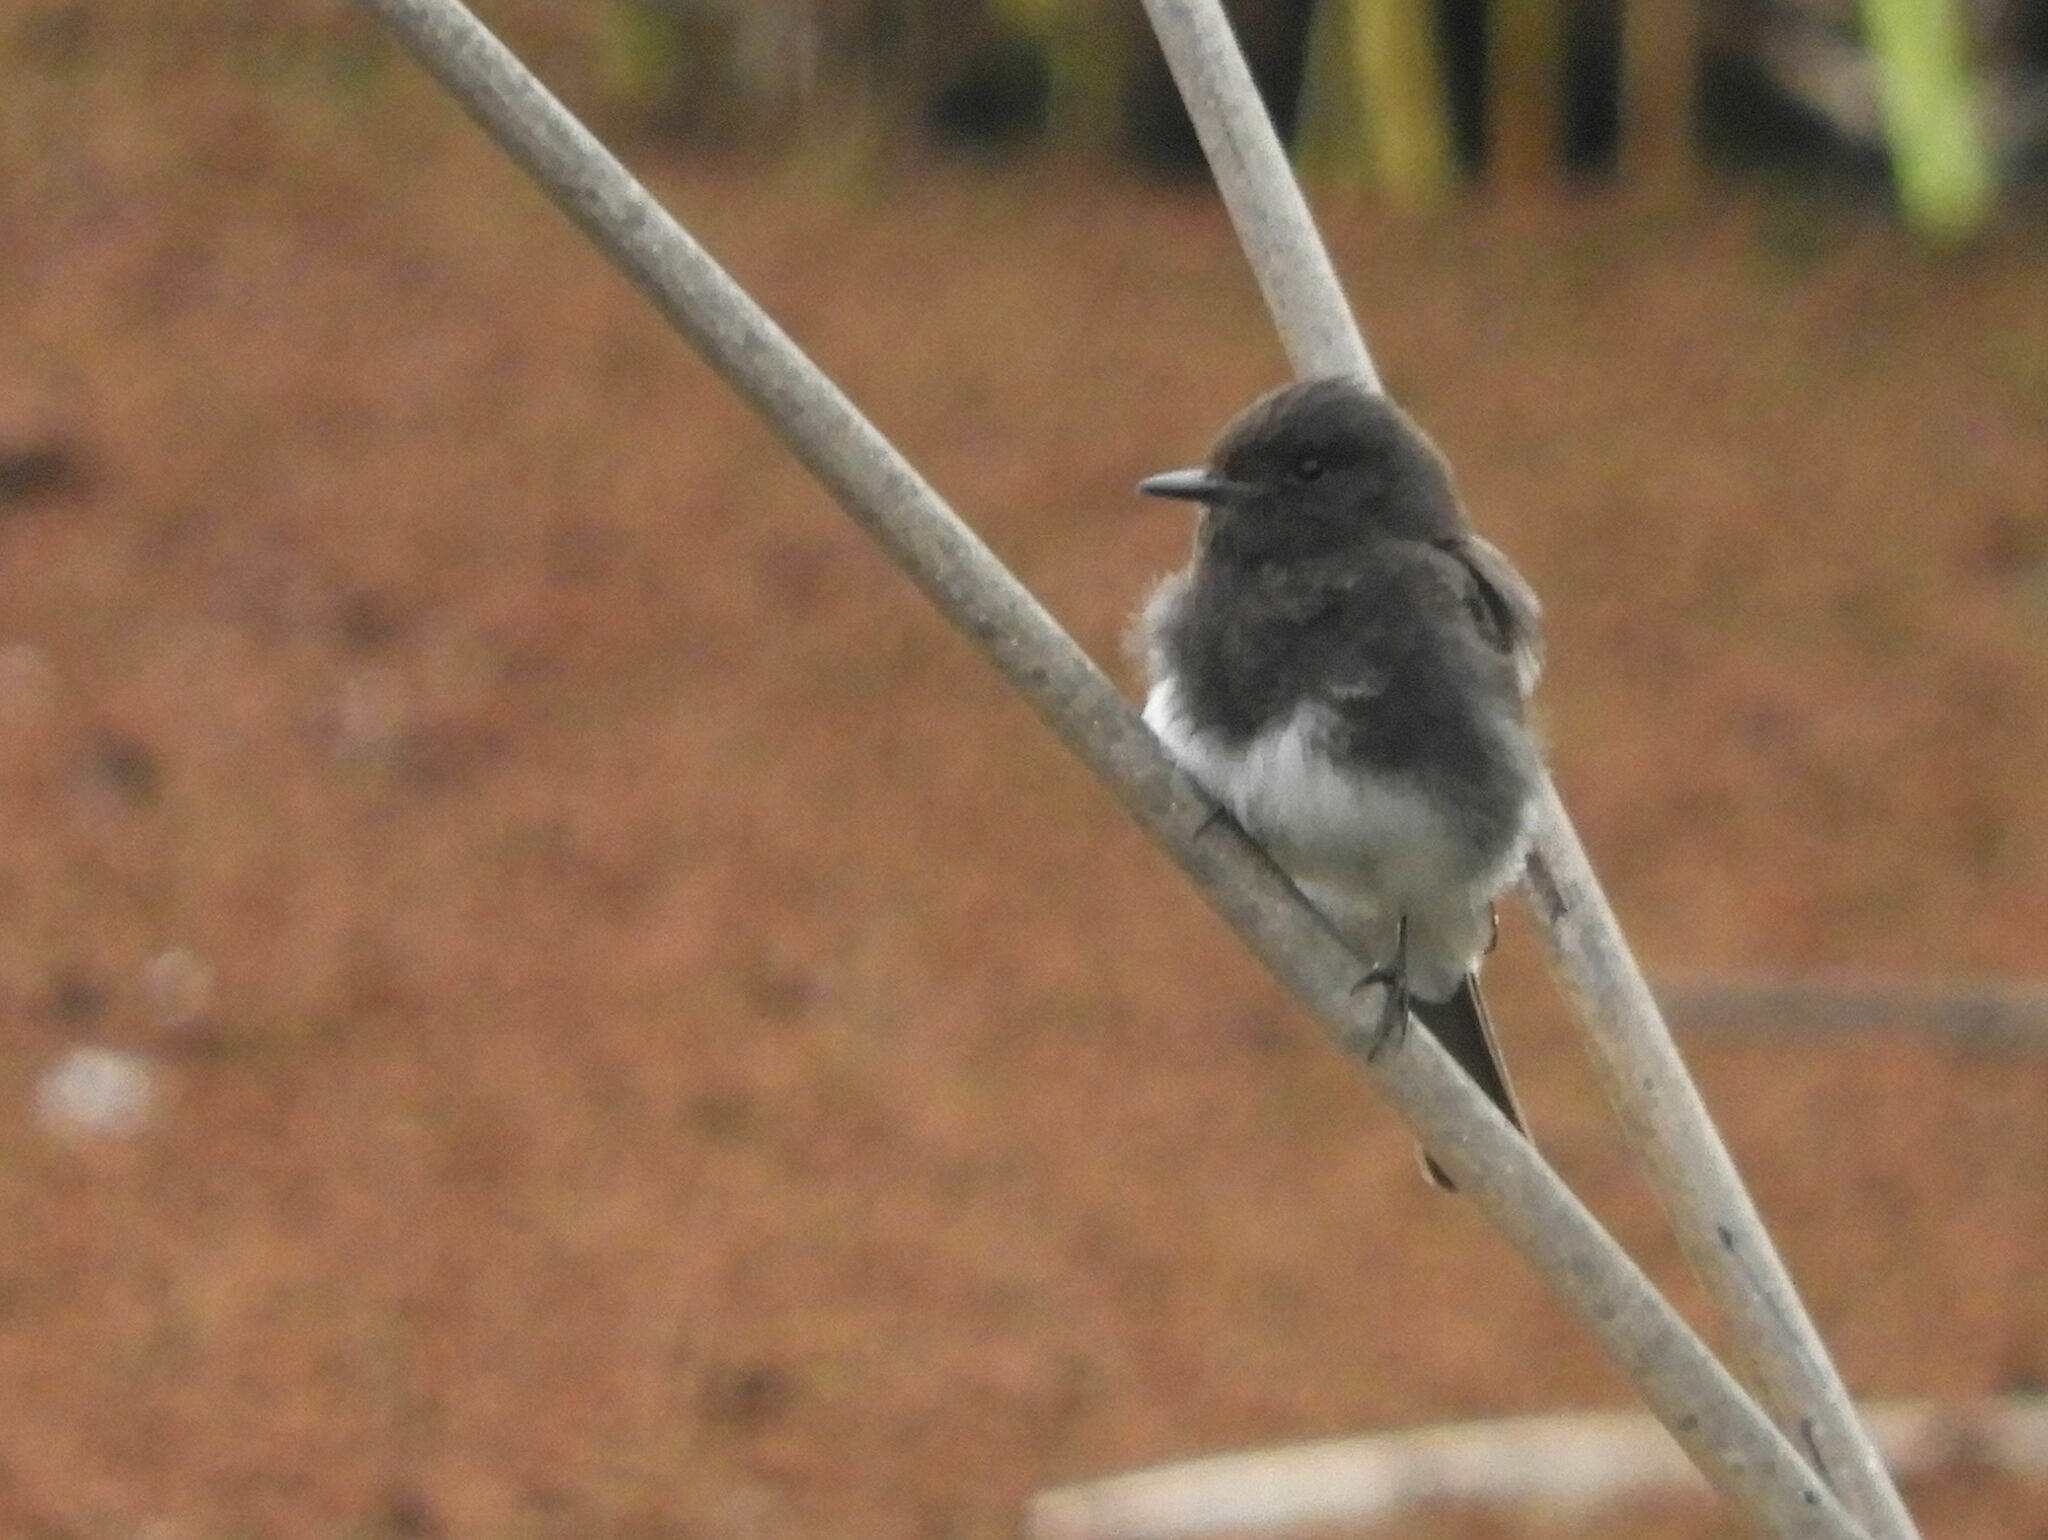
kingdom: Animalia
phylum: Chordata
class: Aves
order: Passeriformes
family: Tyrannidae
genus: Sayornis
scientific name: Sayornis nigricans
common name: Black phoebe
